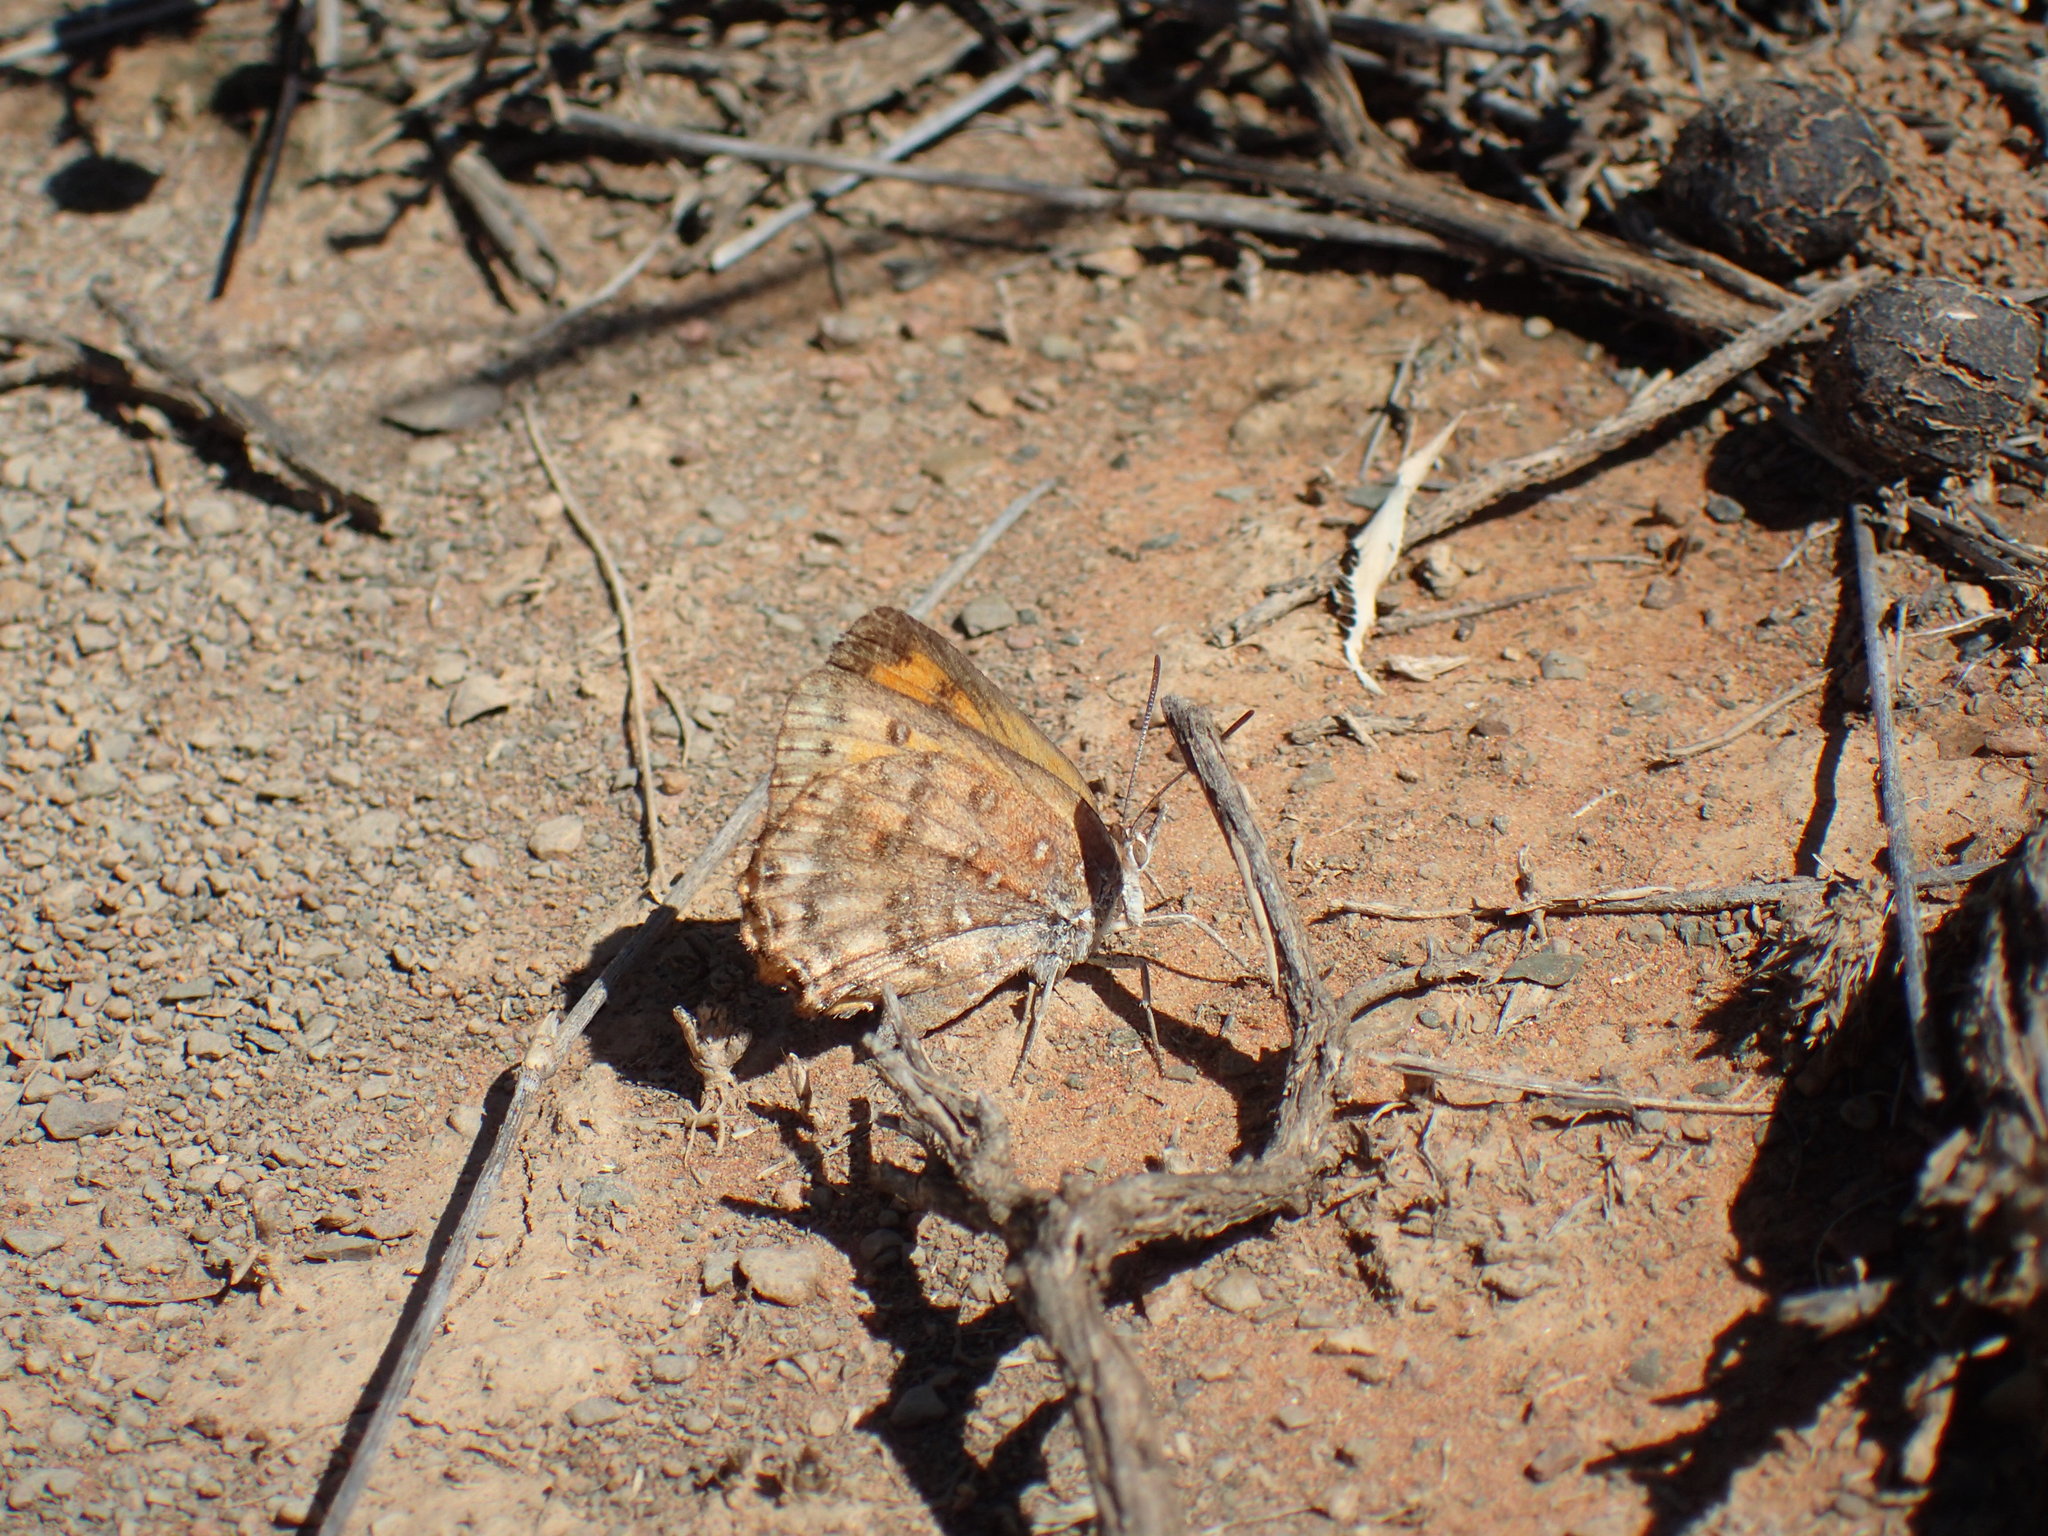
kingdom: Animalia
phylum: Arthropoda
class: Insecta
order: Lepidoptera
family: Lycaenidae
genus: Aloeides
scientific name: Aloeides damarensis
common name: Damara russet
